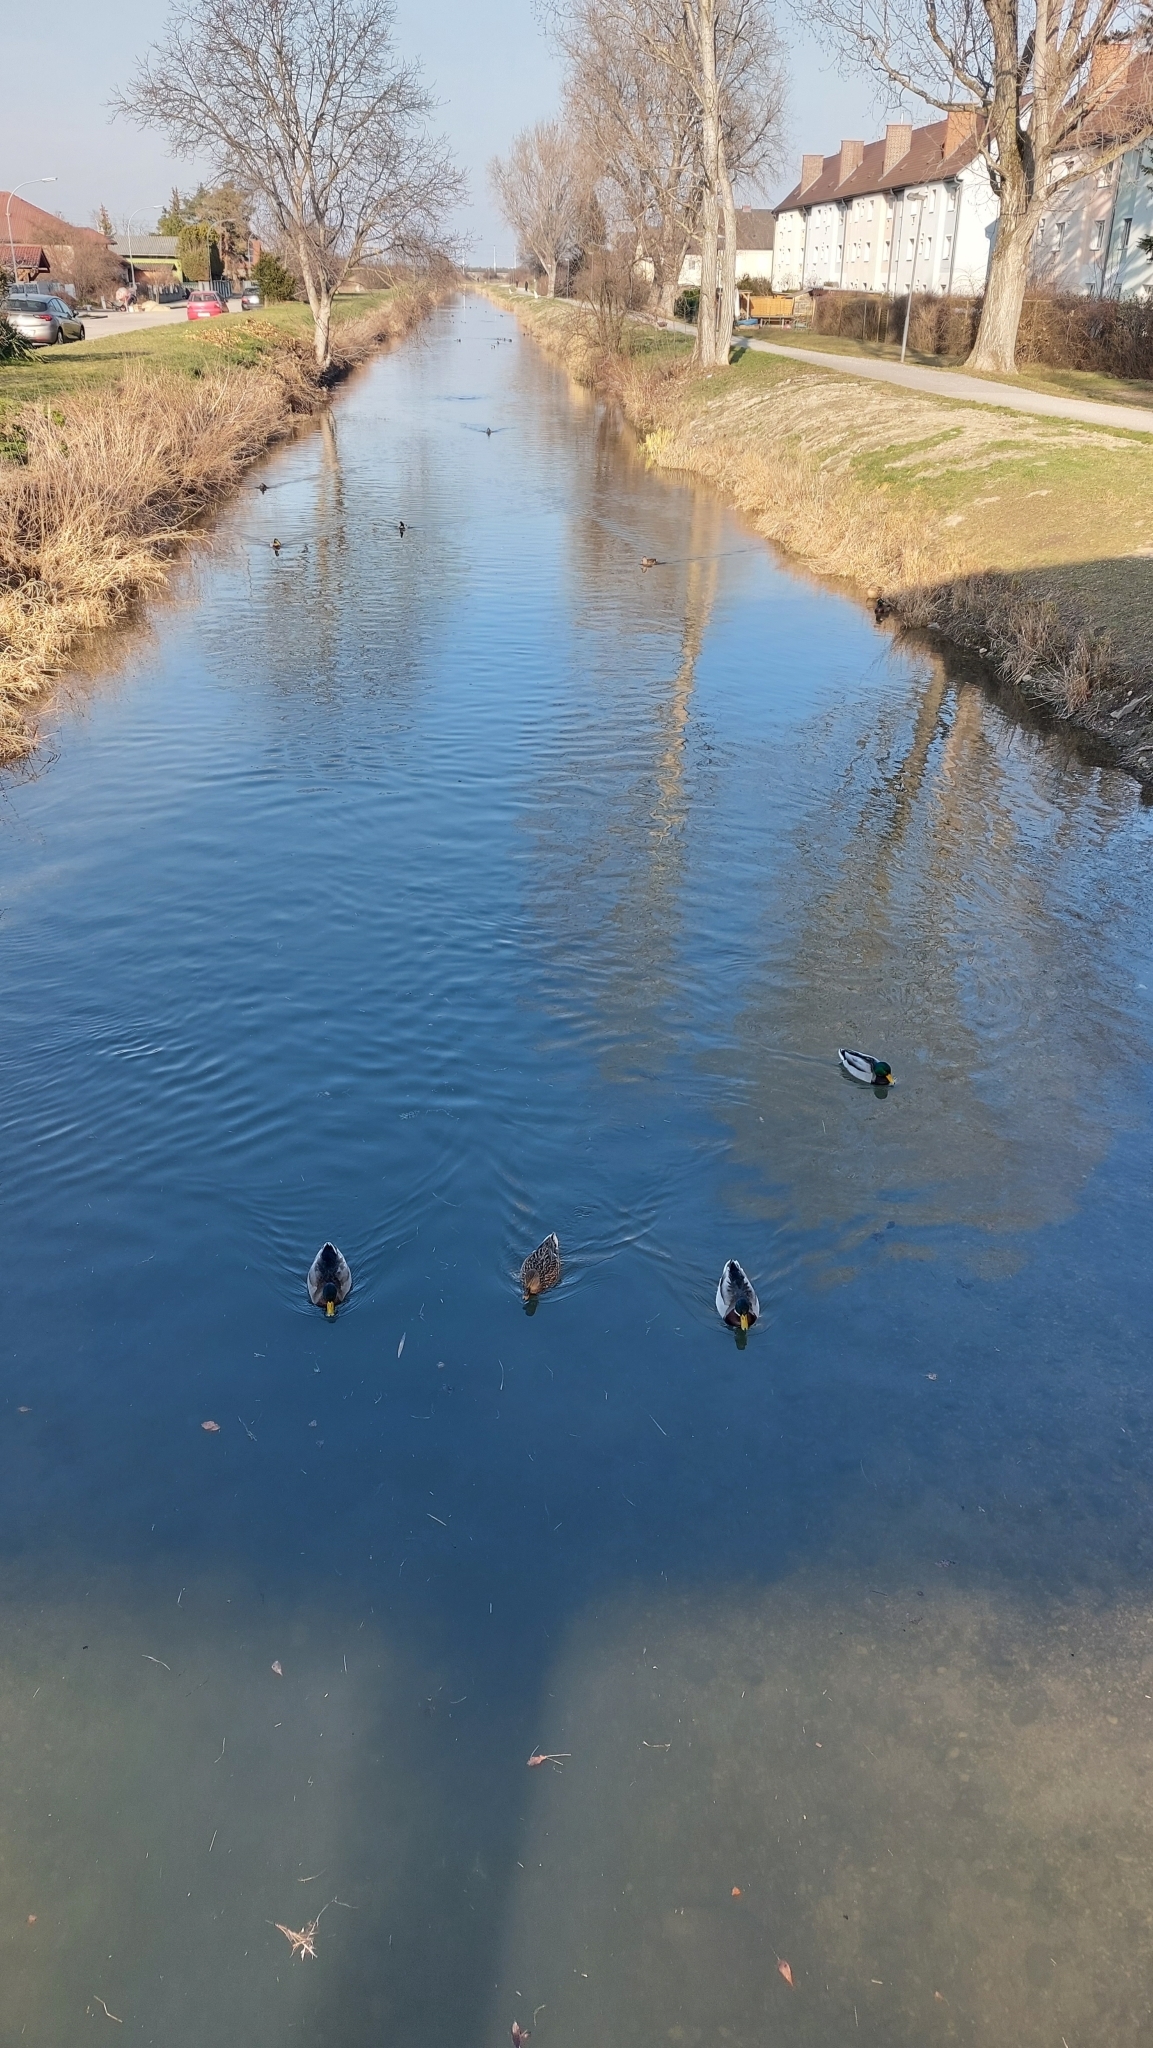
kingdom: Animalia
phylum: Chordata
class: Aves
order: Anseriformes
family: Anatidae
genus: Anas
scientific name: Anas platyrhynchos
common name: Mallard
